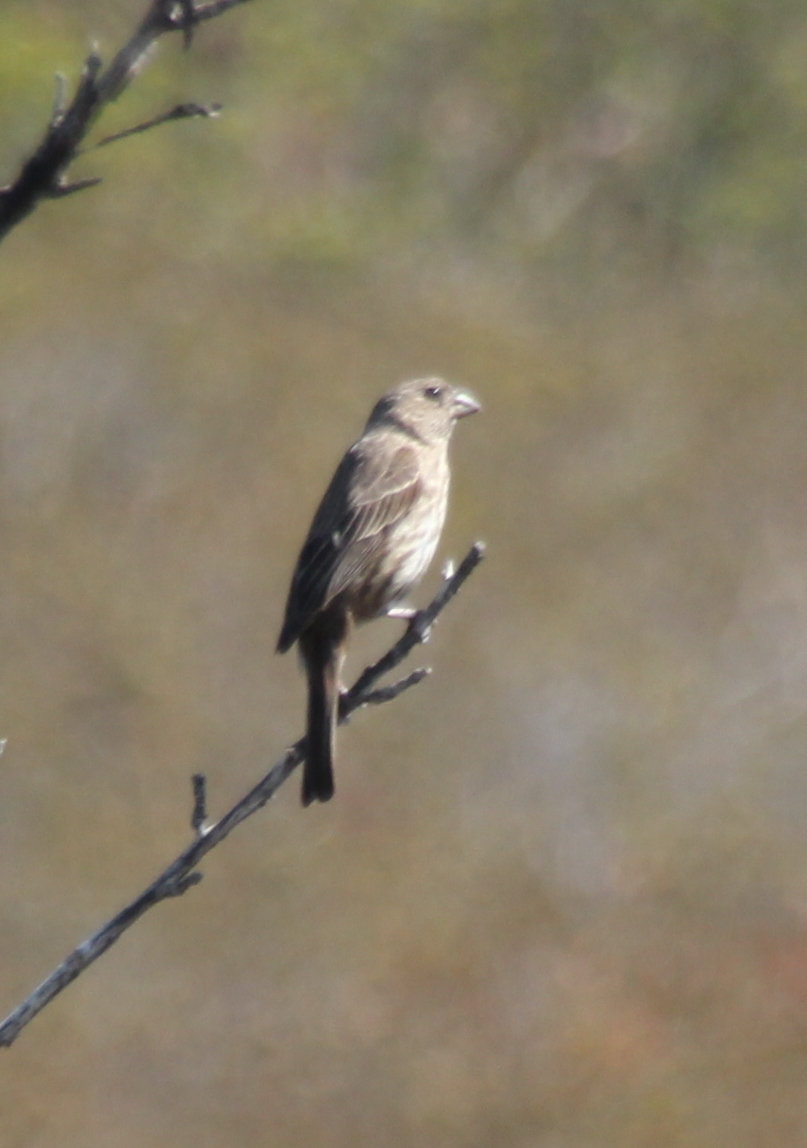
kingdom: Animalia
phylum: Chordata
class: Aves
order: Passeriformes
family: Fringillidae
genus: Haemorhous
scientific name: Haemorhous mexicanus
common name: House finch
